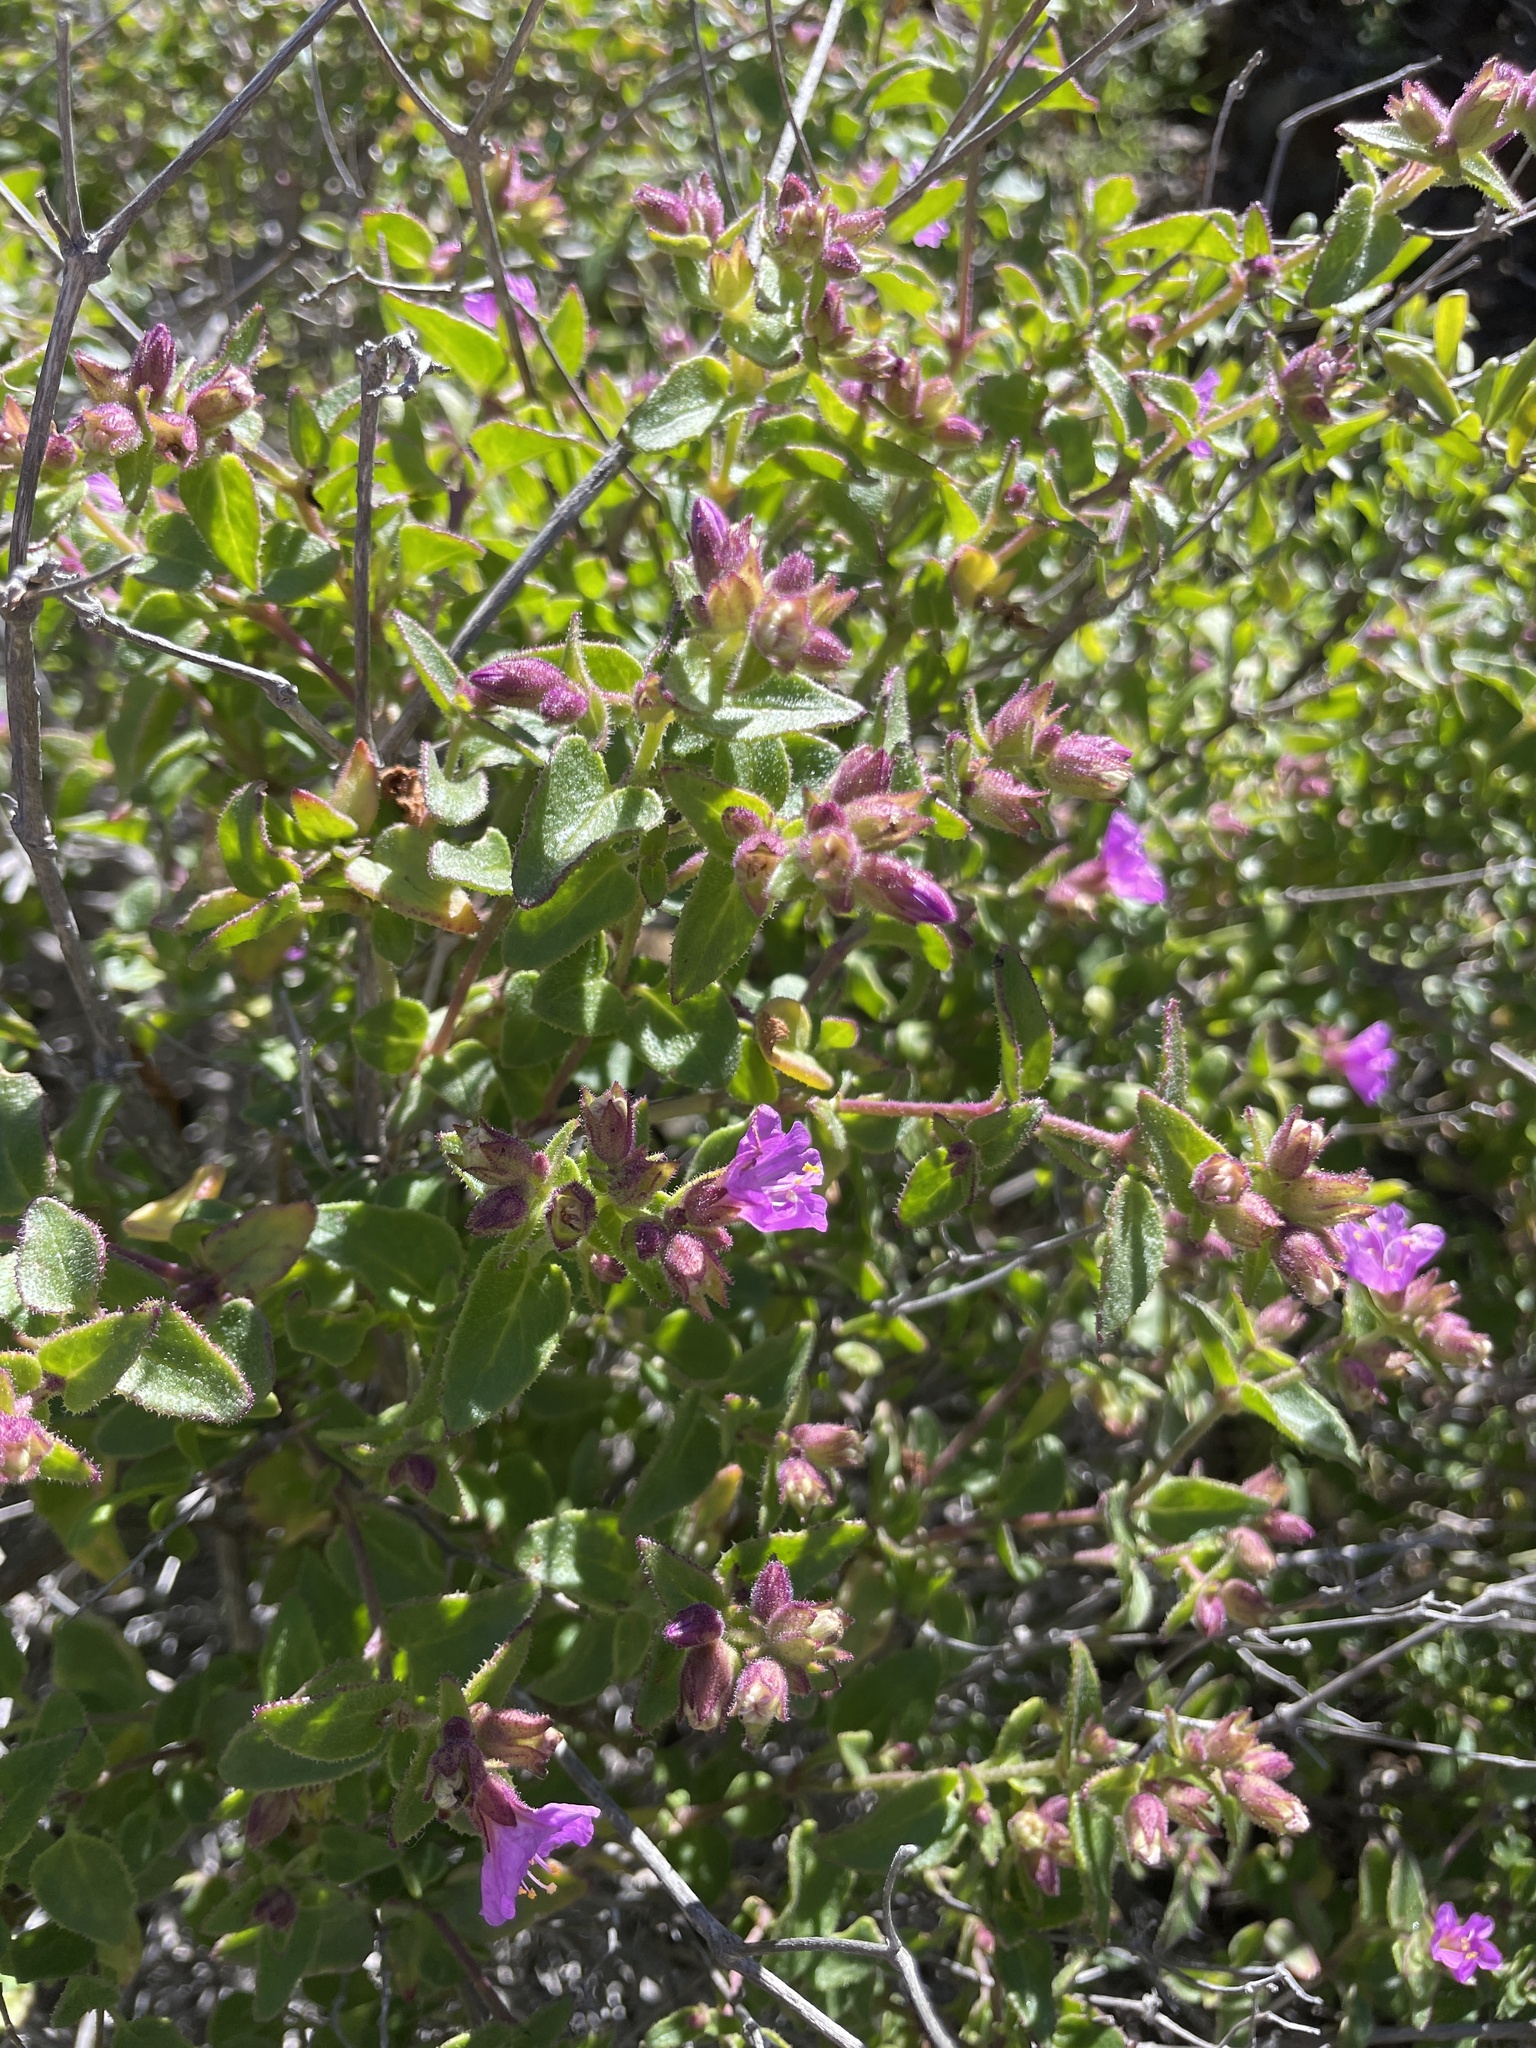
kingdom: Plantae
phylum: Tracheophyta
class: Magnoliopsida
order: Caryophyllales
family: Nyctaginaceae
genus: Mirabilis
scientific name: Mirabilis laevis
